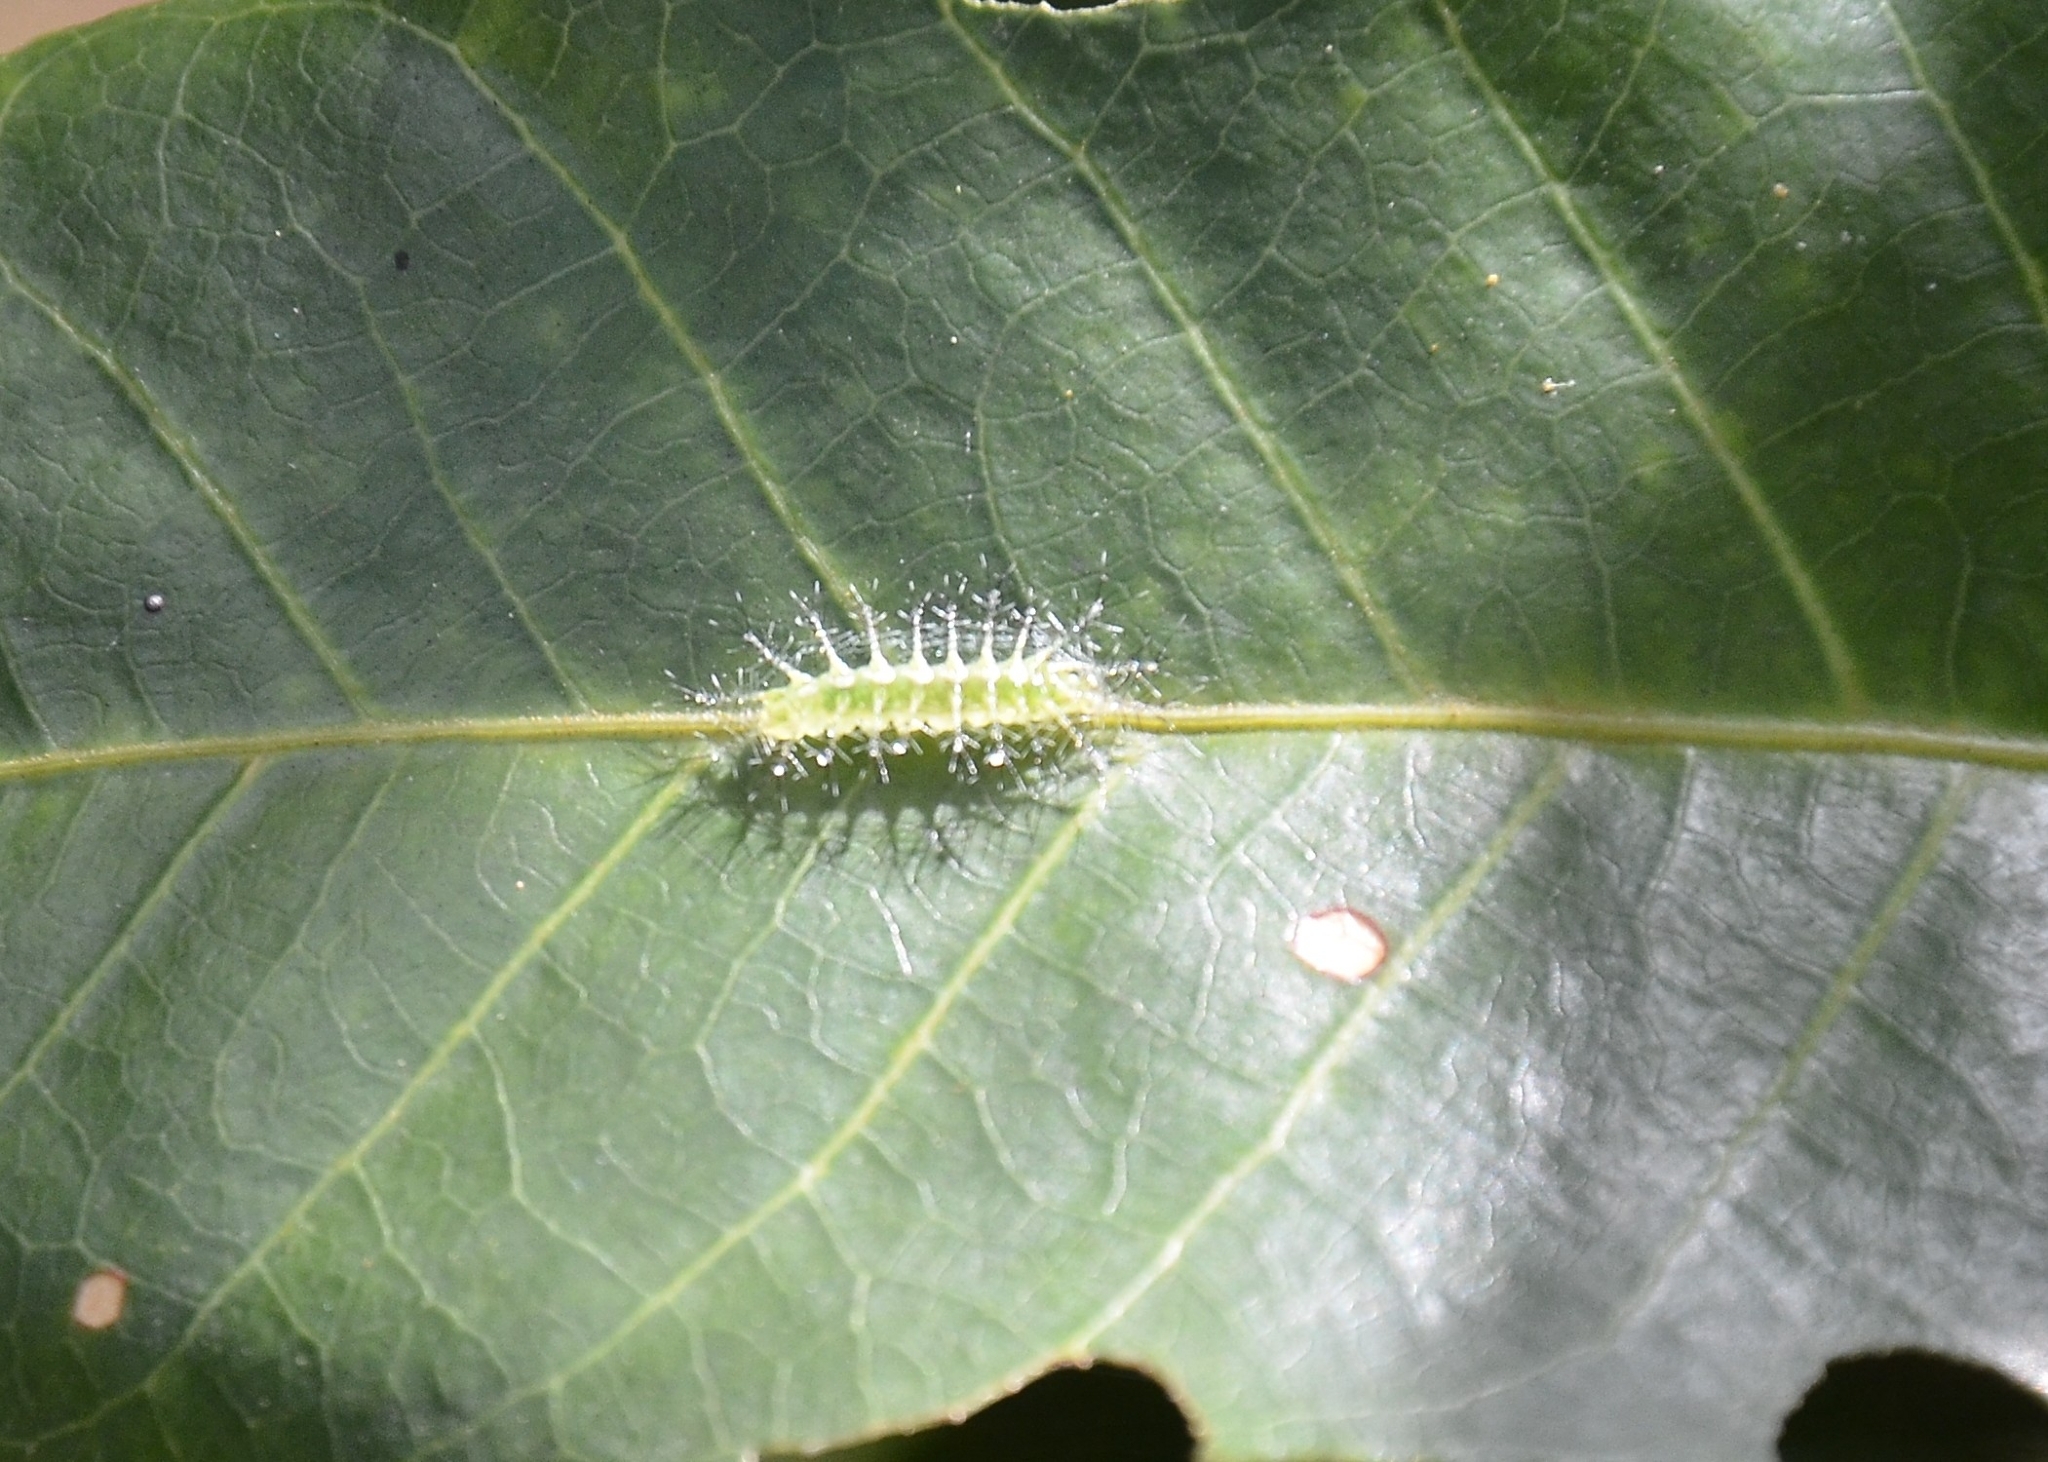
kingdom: Animalia
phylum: Arthropoda
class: Insecta
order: Lepidoptera
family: Nymphalidae
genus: Tanaecia
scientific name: Tanaecia lepidea
